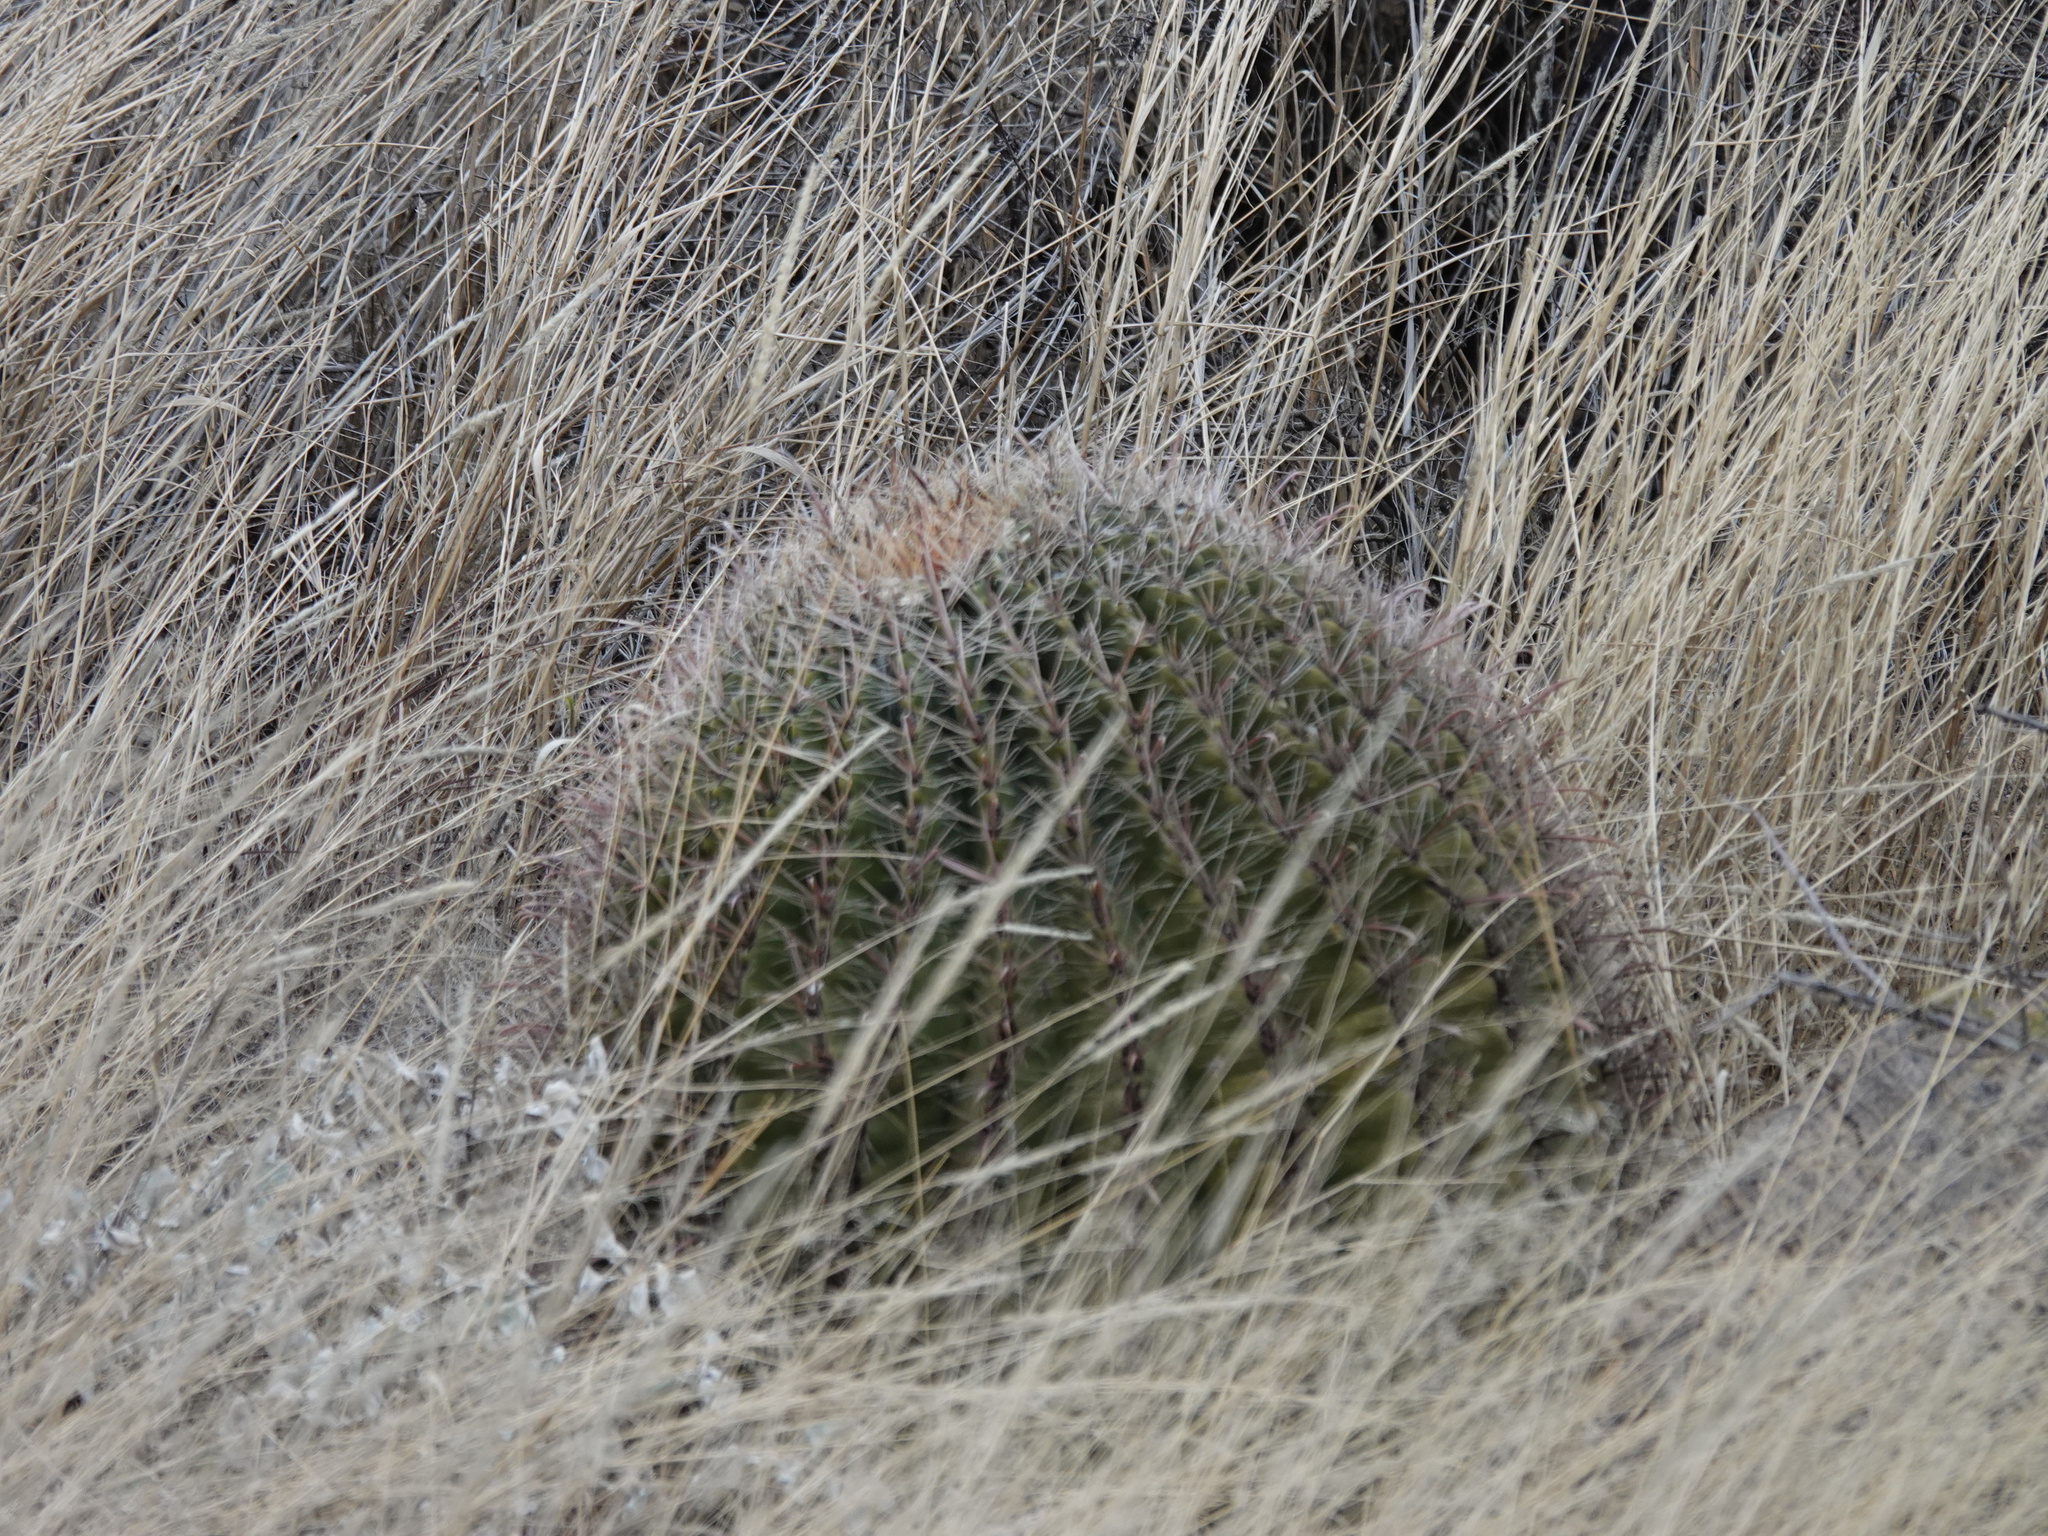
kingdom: Plantae
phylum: Tracheophyta
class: Magnoliopsida
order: Caryophyllales
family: Cactaceae
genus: Ferocactus
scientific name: Ferocactus wislizeni
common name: Candy barrel cactus
